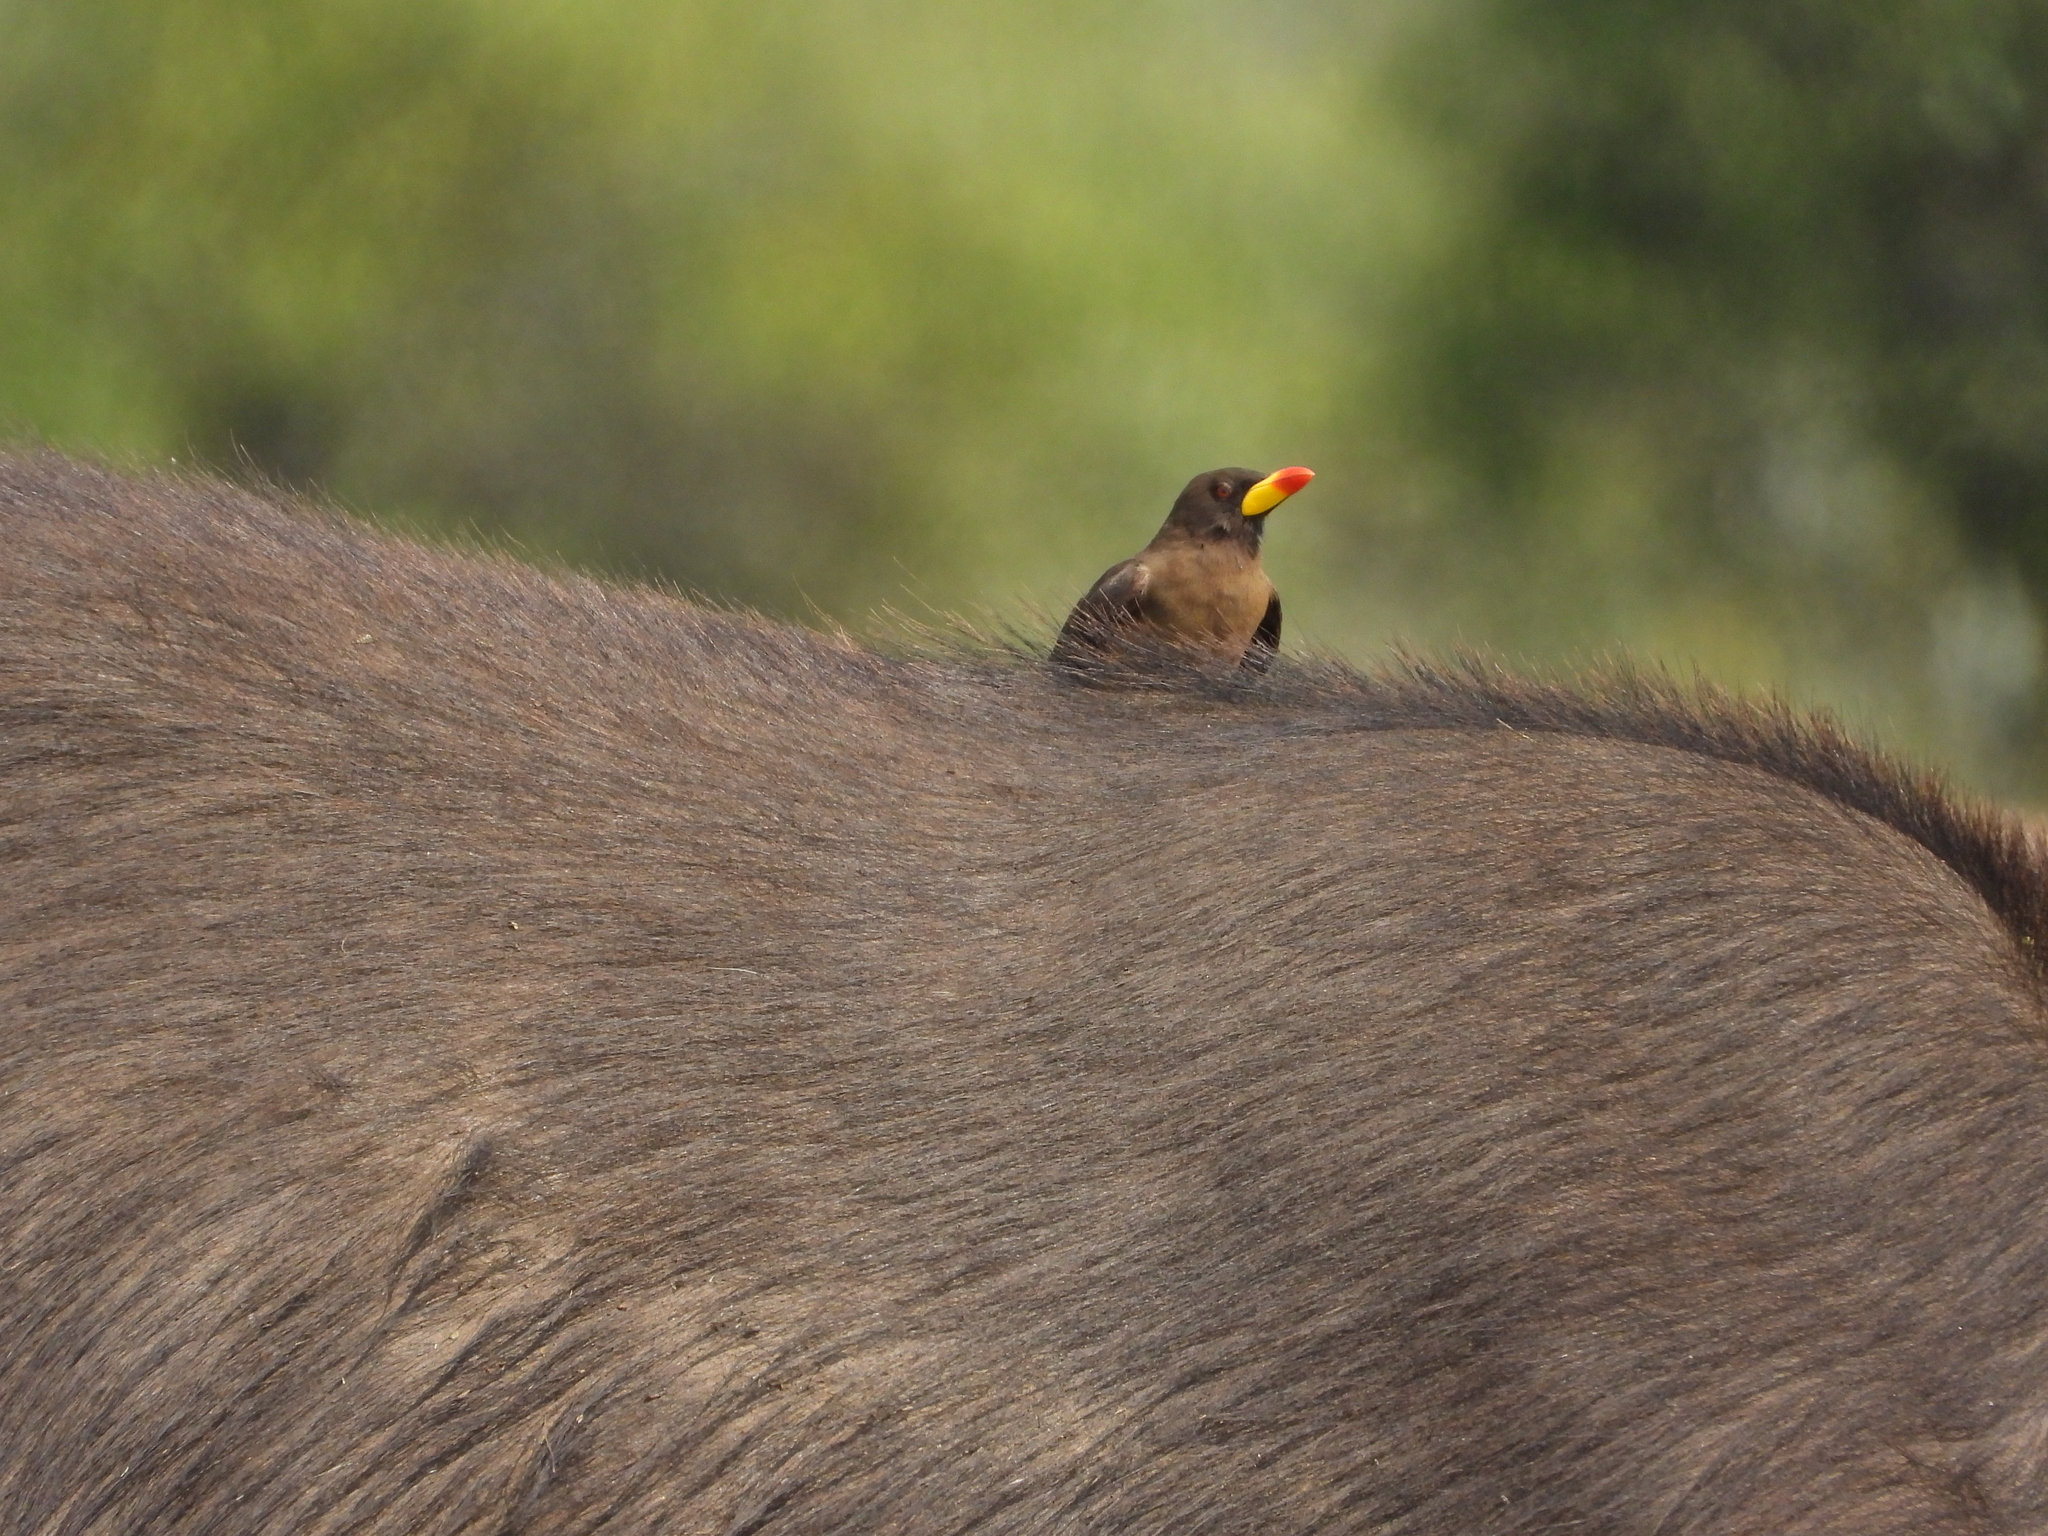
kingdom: Animalia
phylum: Chordata
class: Aves
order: Passeriformes
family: Buphagidae
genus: Buphagus
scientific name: Buphagus africanus
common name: Yellow-billed oxpecker
